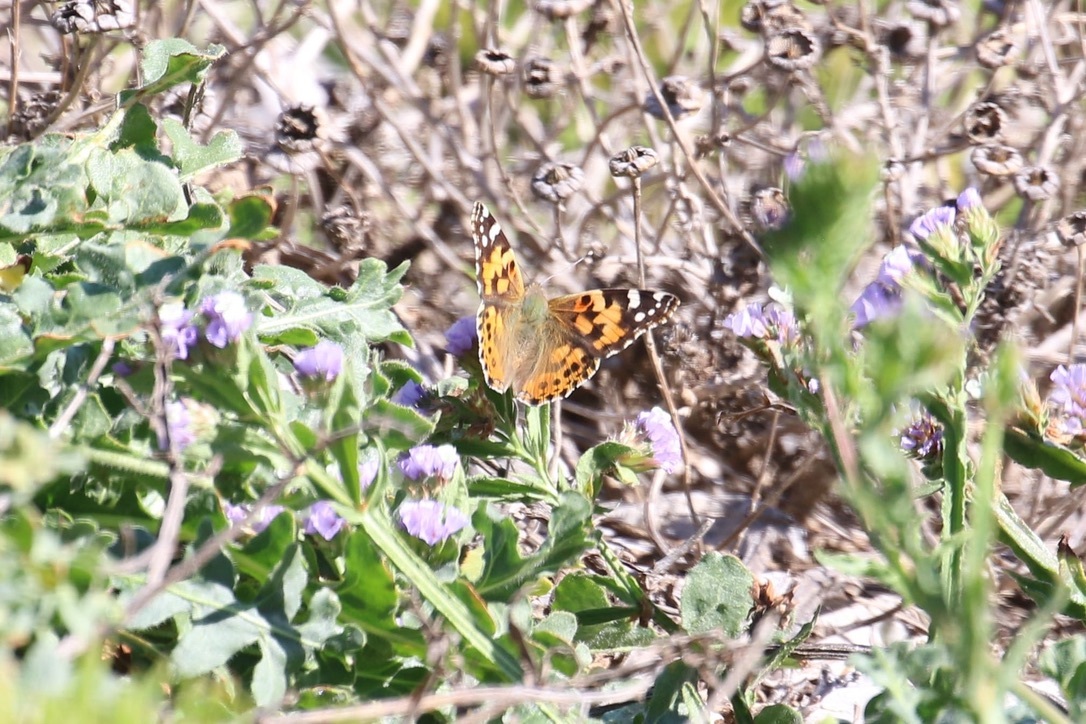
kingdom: Animalia
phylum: Arthropoda
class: Insecta
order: Lepidoptera
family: Nymphalidae
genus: Vanessa
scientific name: Vanessa cardui
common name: Painted lady
